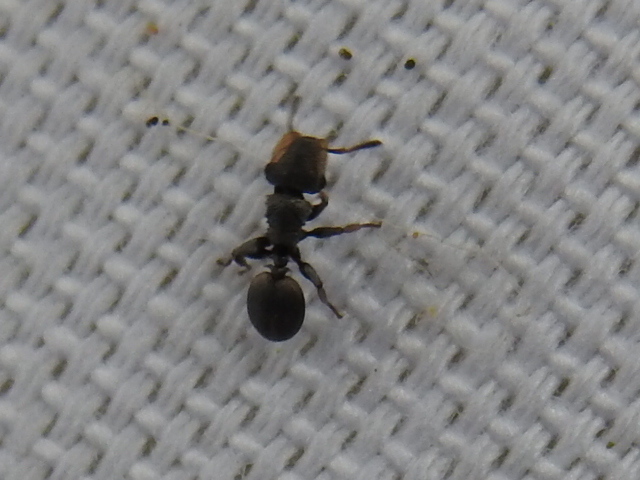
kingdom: Animalia
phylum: Arthropoda
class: Insecta
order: Hymenoptera
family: Formicidae
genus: Cephalotes
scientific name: Cephalotes texanus
